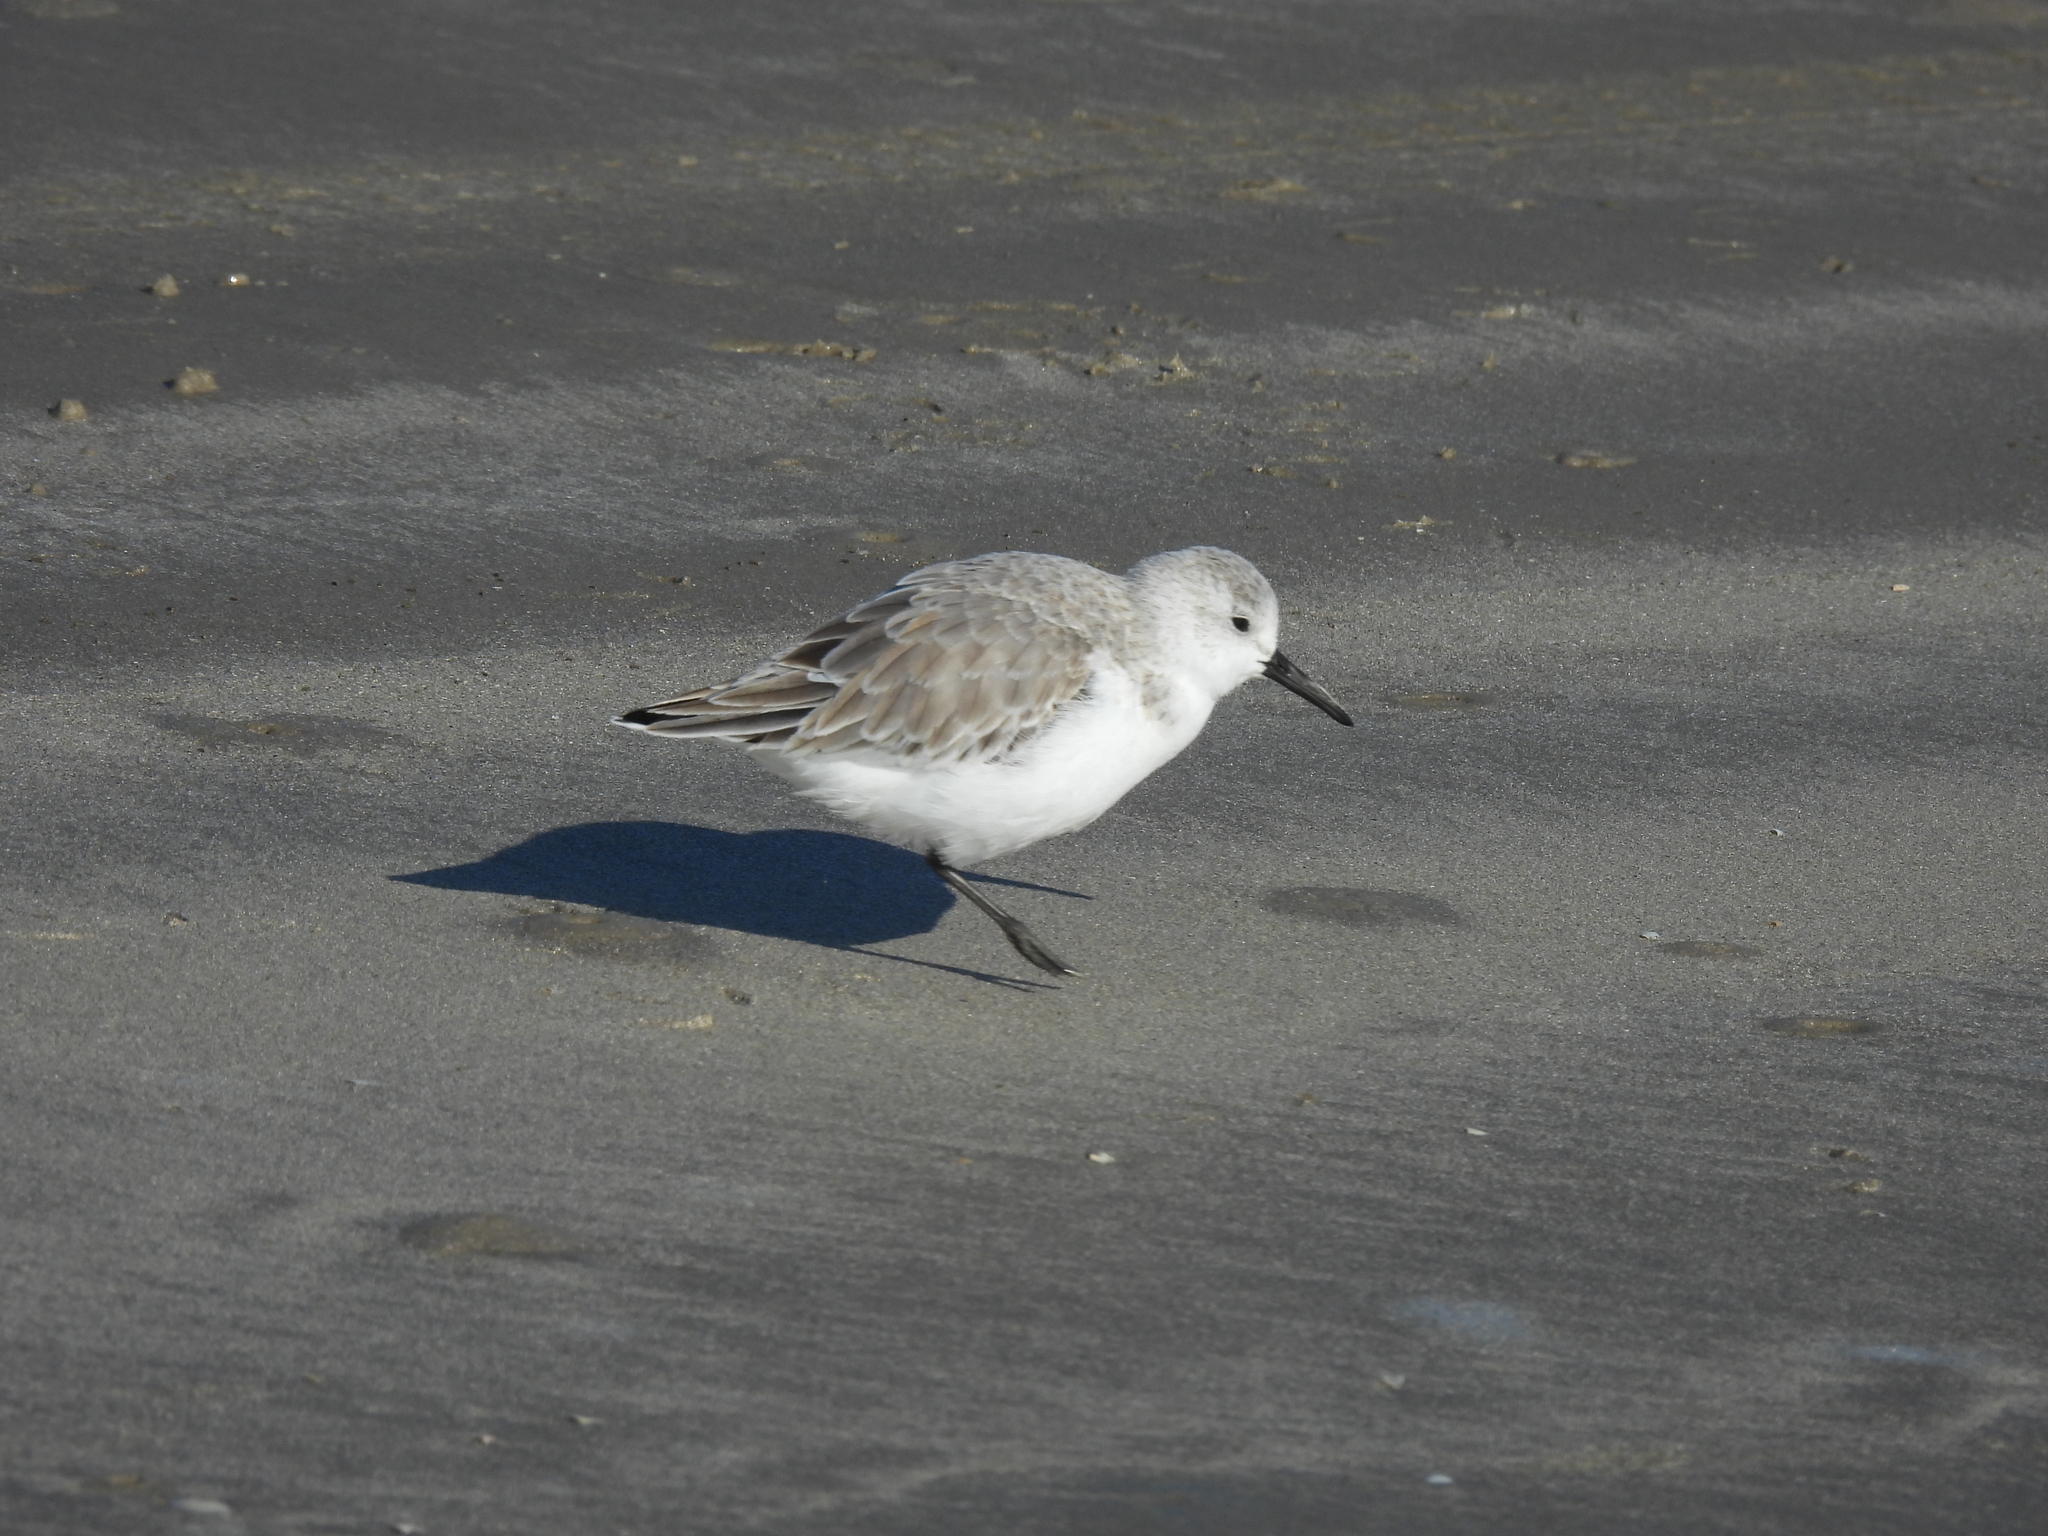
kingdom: Animalia
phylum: Chordata
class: Aves
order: Charadriiformes
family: Scolopacidae
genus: Calidris
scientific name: Calidris alba
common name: Sanderling
